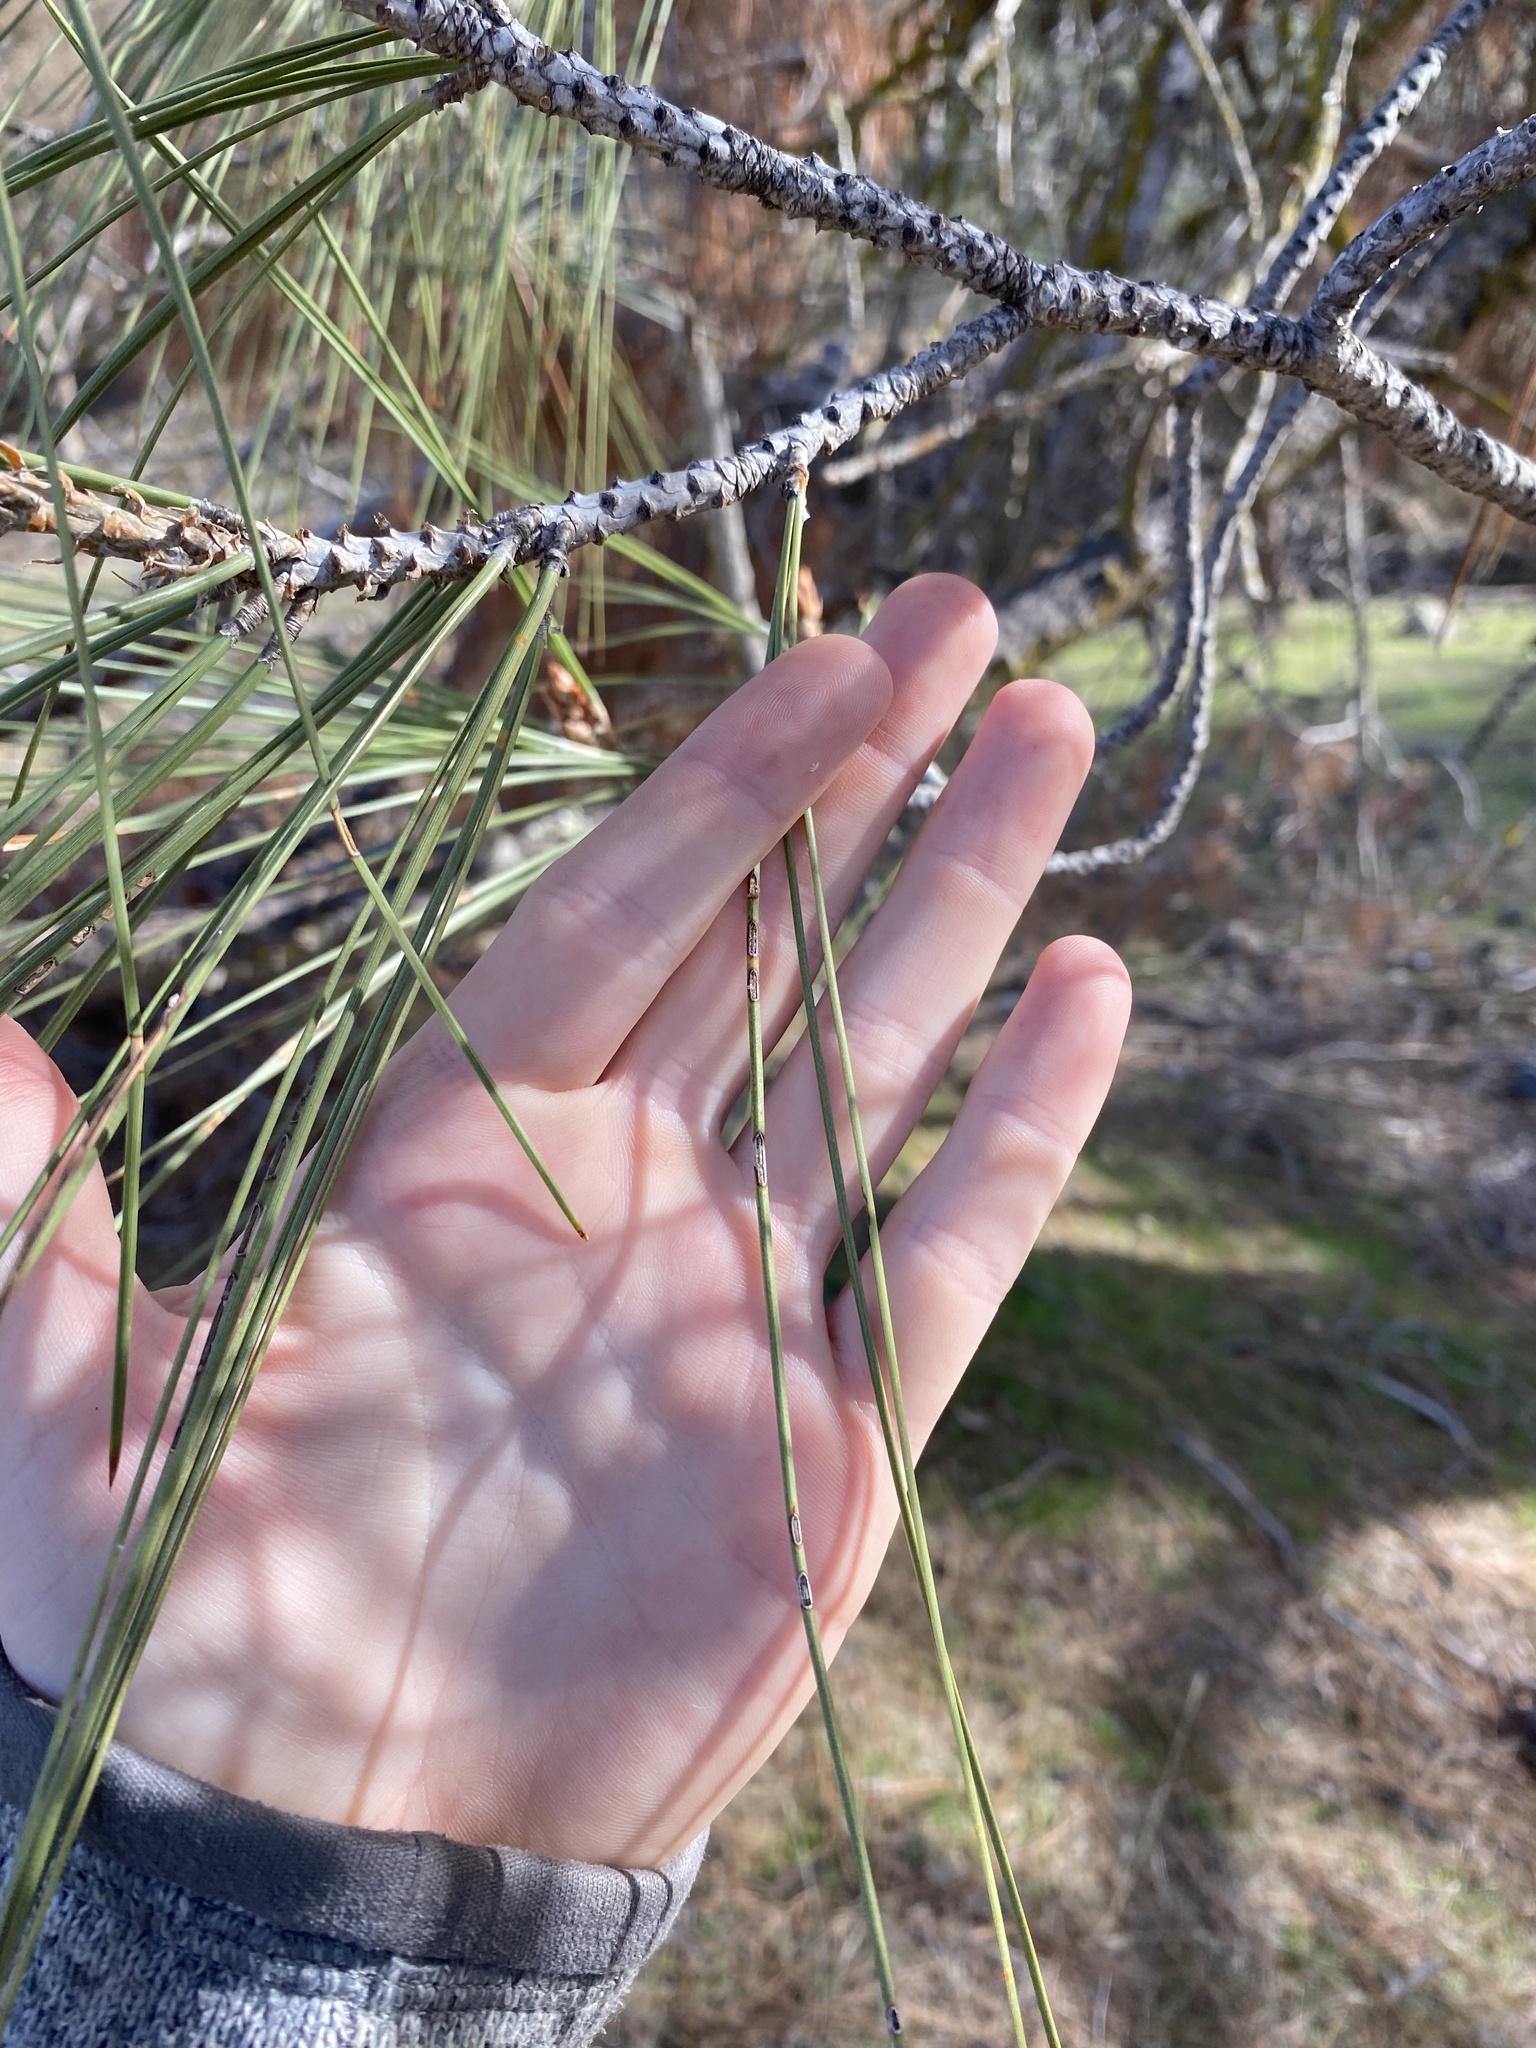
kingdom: Plantae
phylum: Tracheophyta
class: Pinopsida
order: Pinales
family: Pinaceae
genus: Pinus
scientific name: Pinus sabiniana
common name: Bull pine
